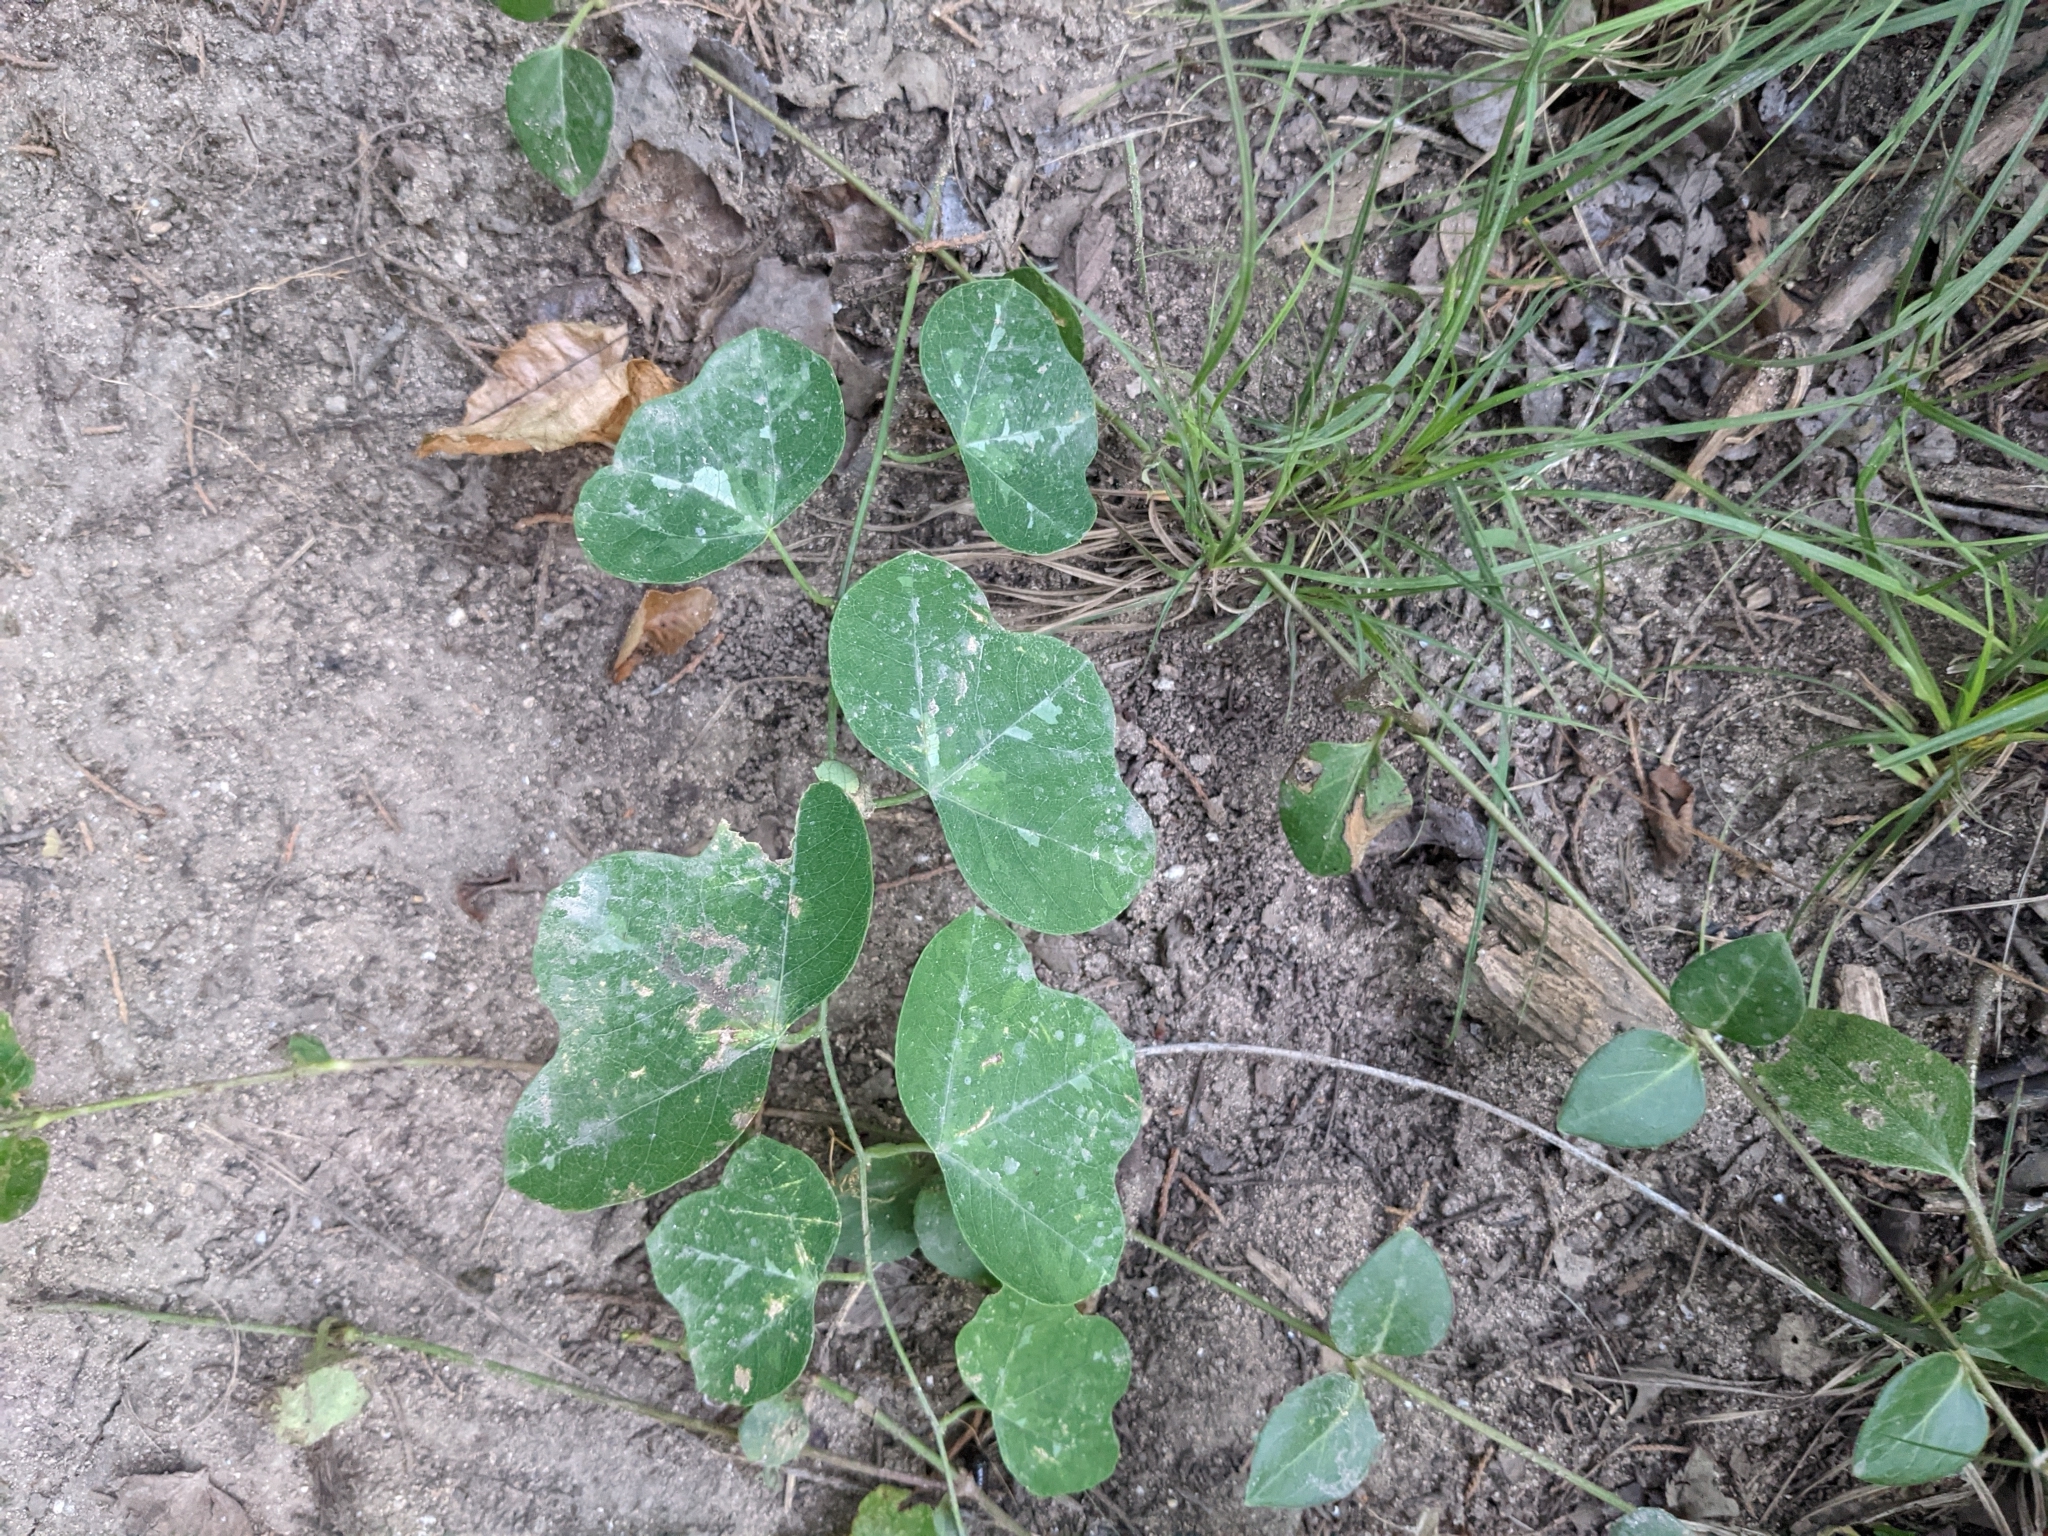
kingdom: Plantae
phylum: Tracheophyta
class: Magnoliopsida
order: Malpighiales
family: Passifloraceae
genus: Passiflora
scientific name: Passiflora lutea
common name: Yellow passionflower
